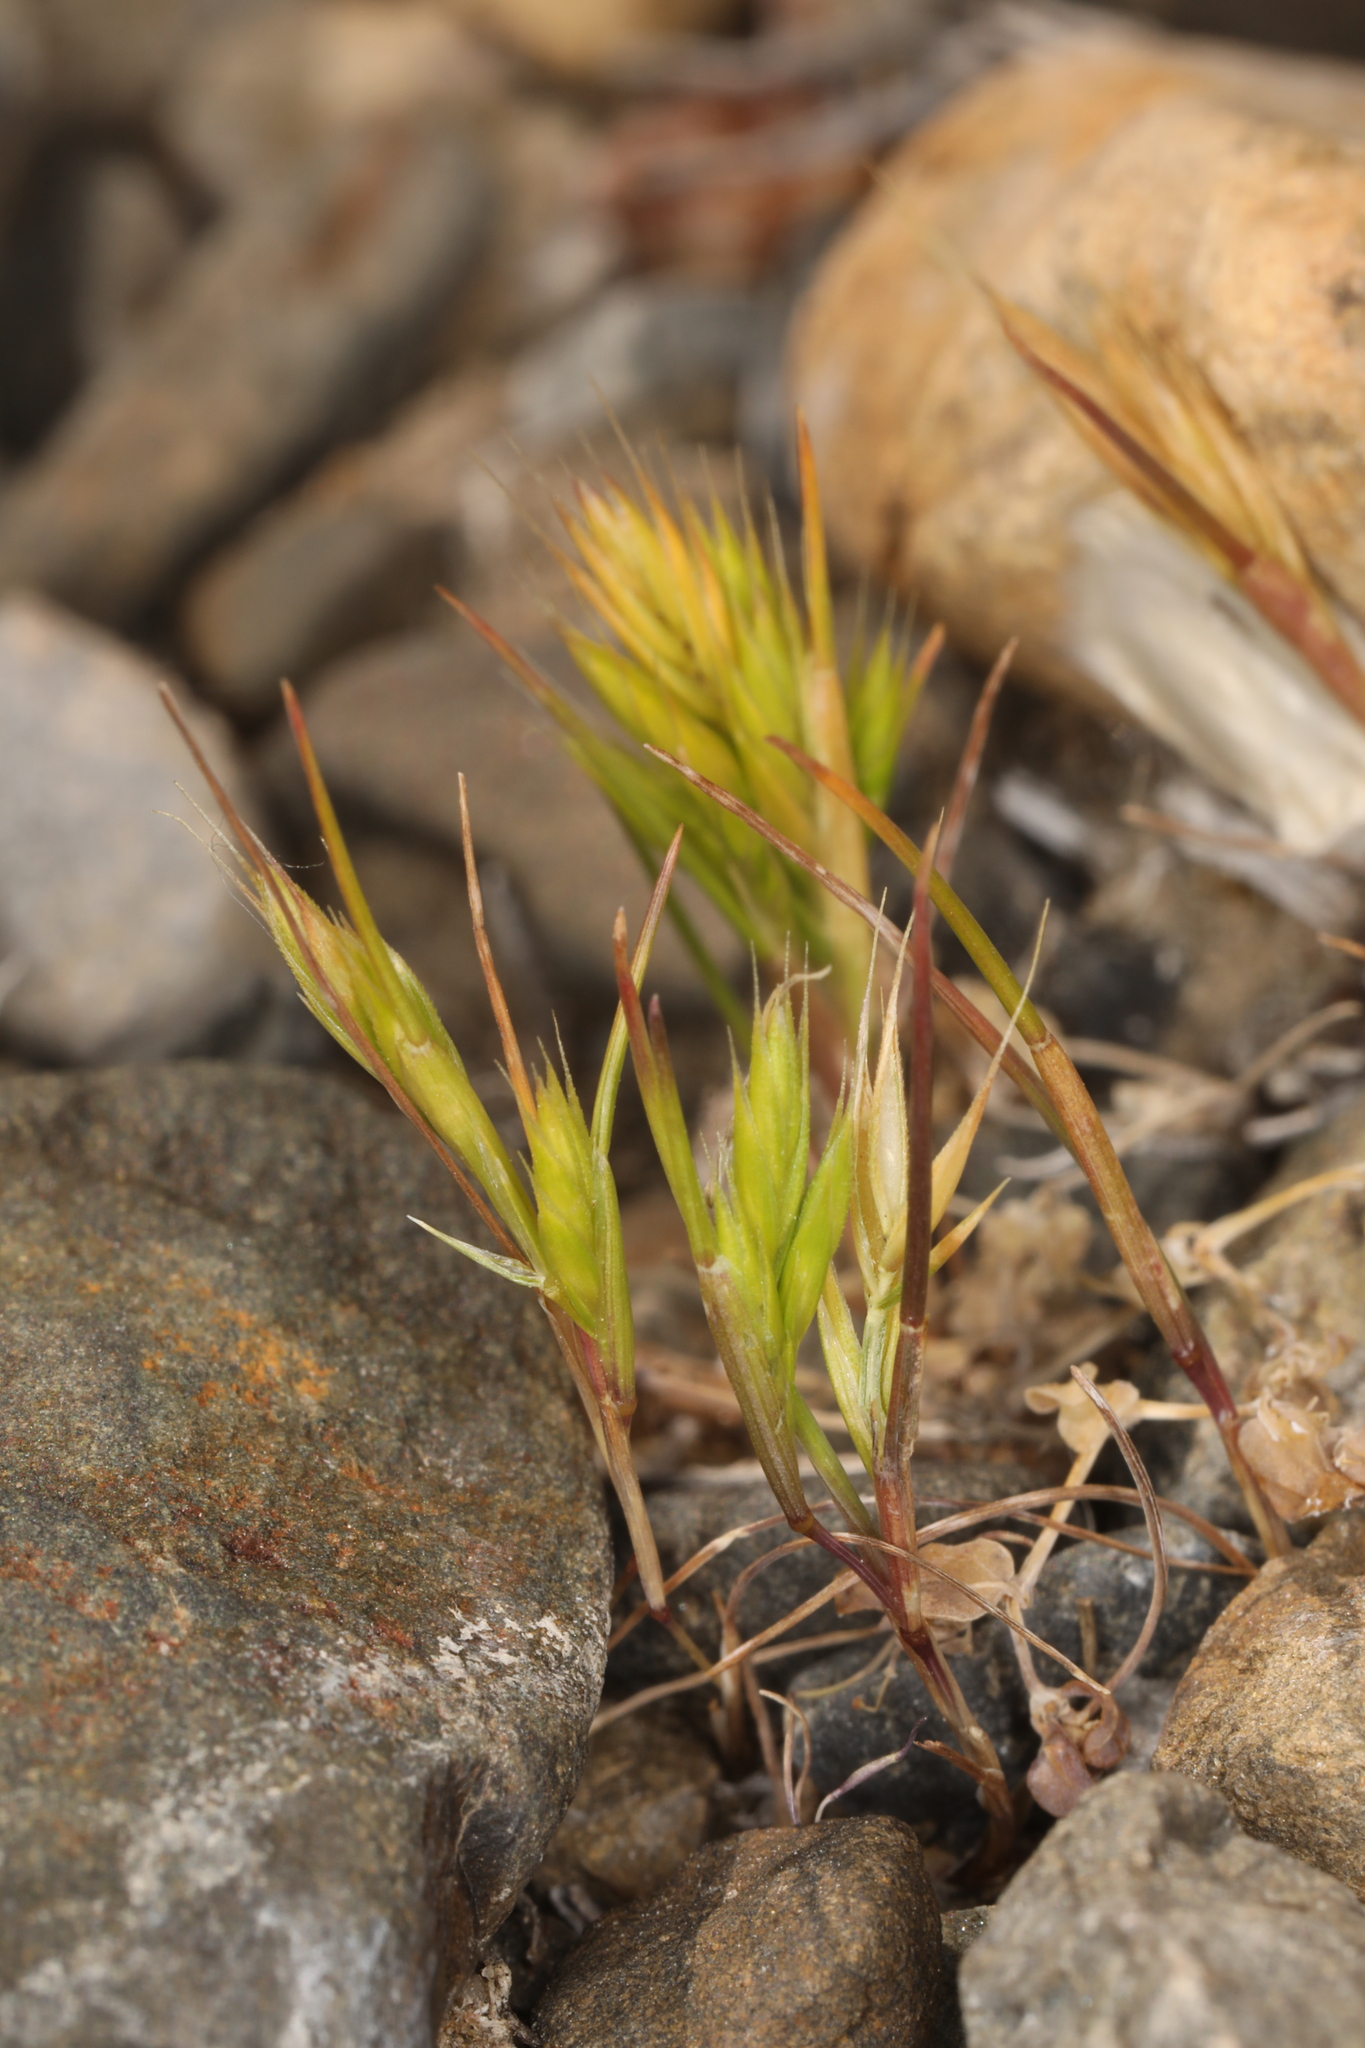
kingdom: Plantae
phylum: Tracheophyta
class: Liliopsida
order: Poales
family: Poaceae
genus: Festuca
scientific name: Festuca octoflora
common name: Sixweeks grass
